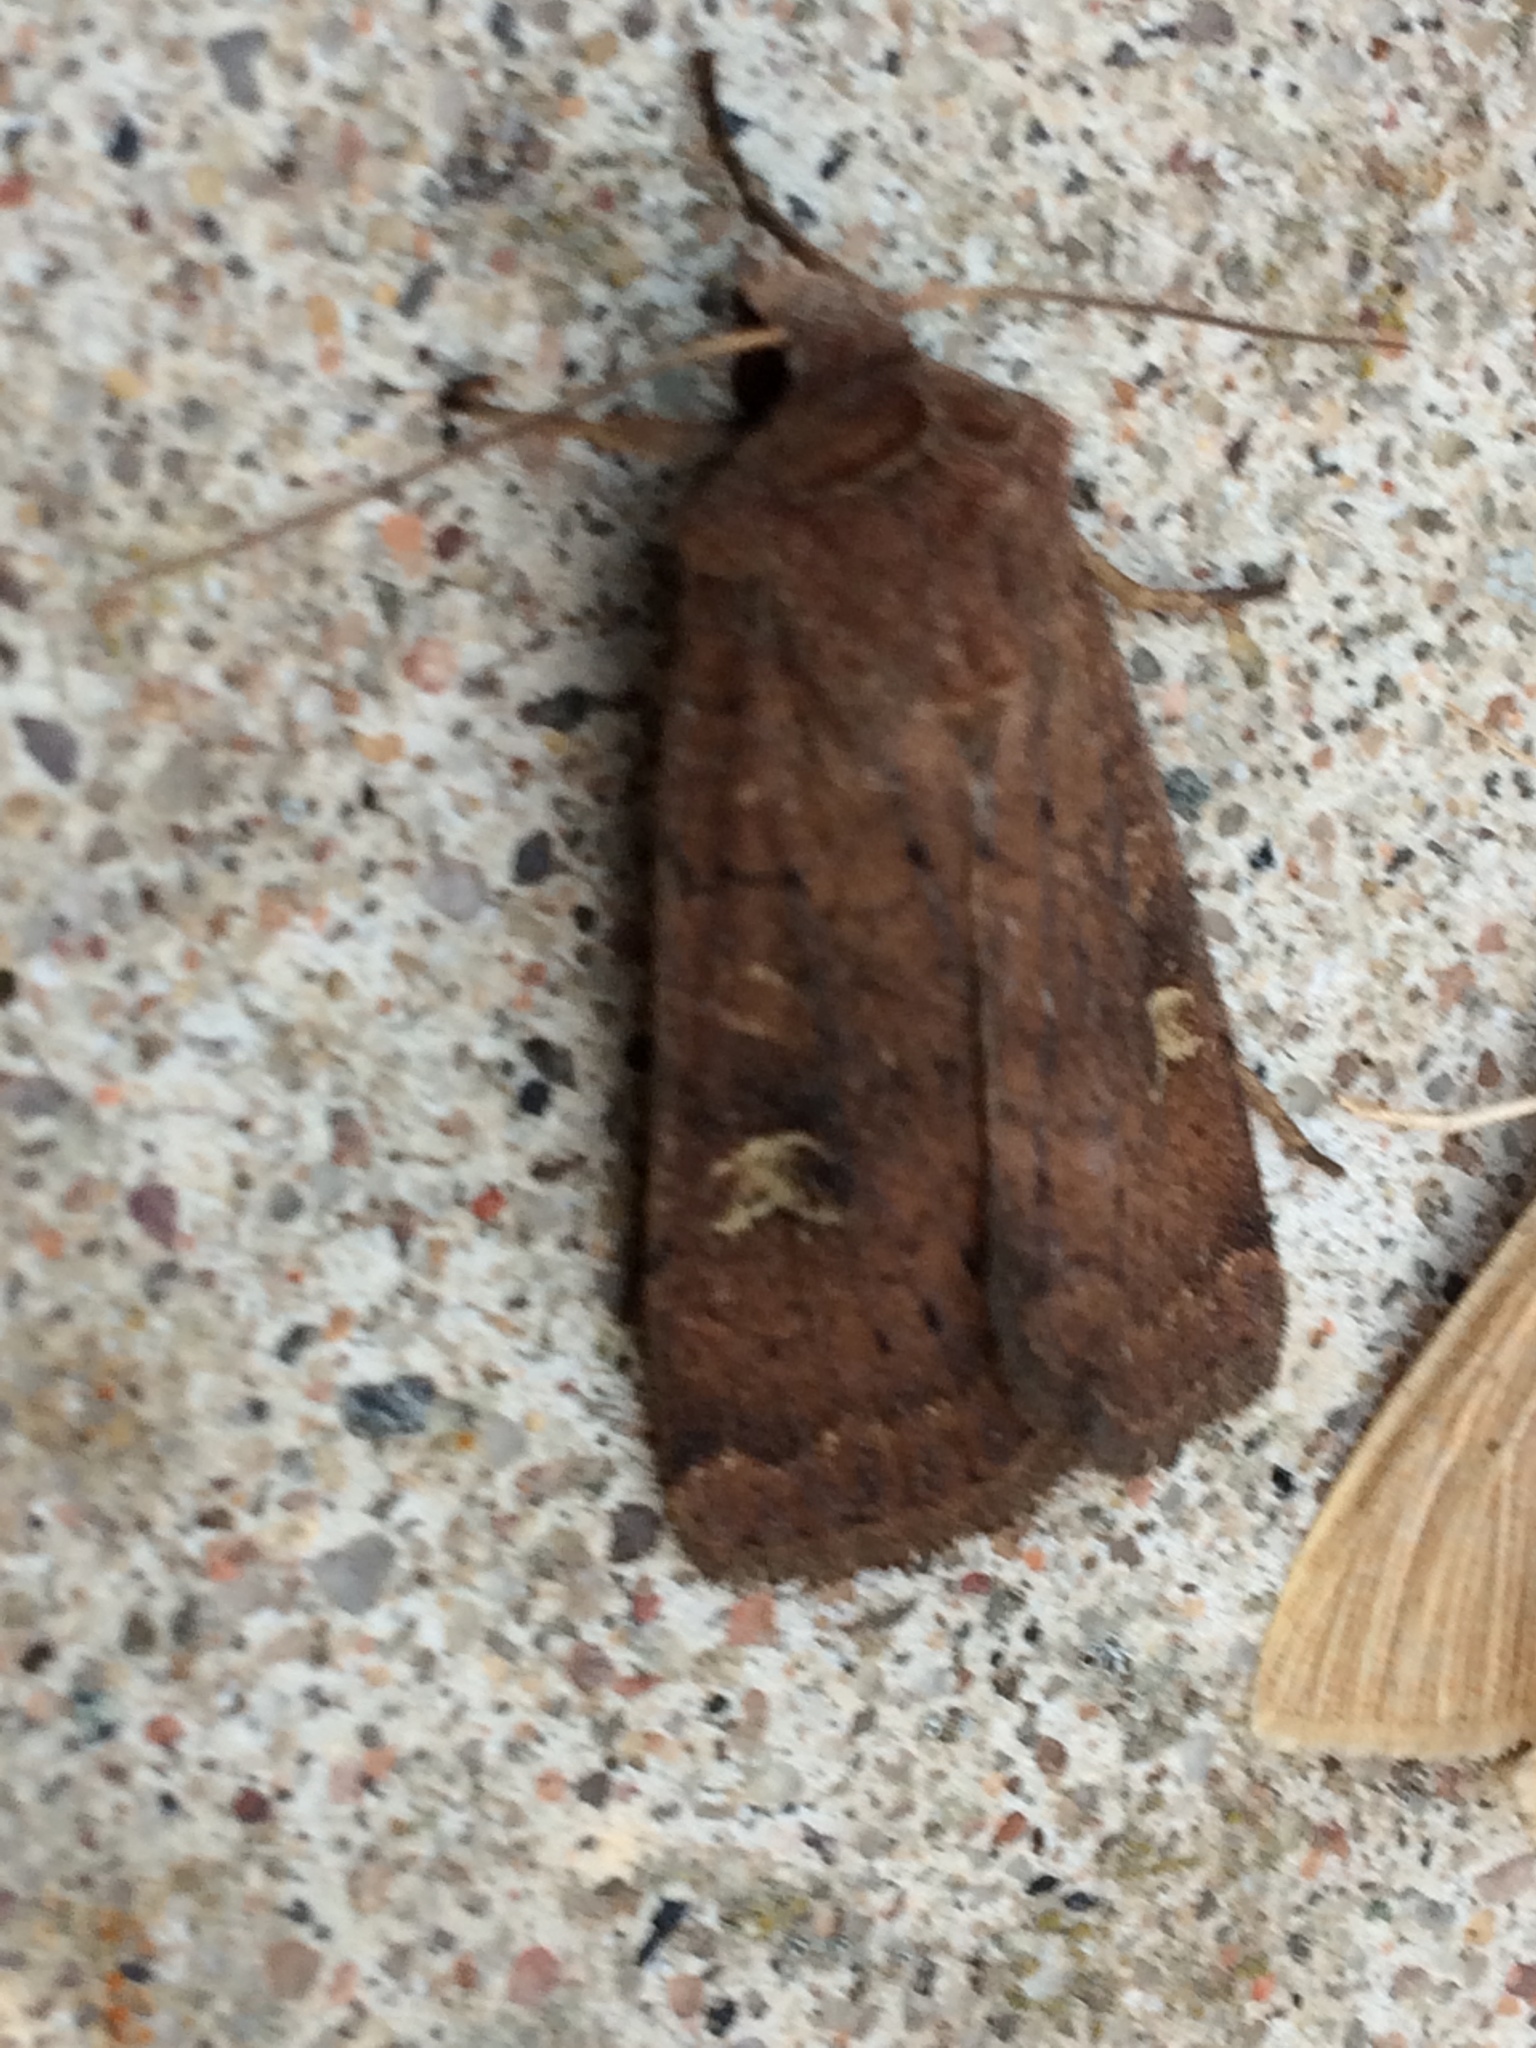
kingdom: Animalia
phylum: Arthropoda
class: Insecta
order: Lepidoptera
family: Noctuidae
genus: Xestia
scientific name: Xestia xanthographa
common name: Square-spot rustic
